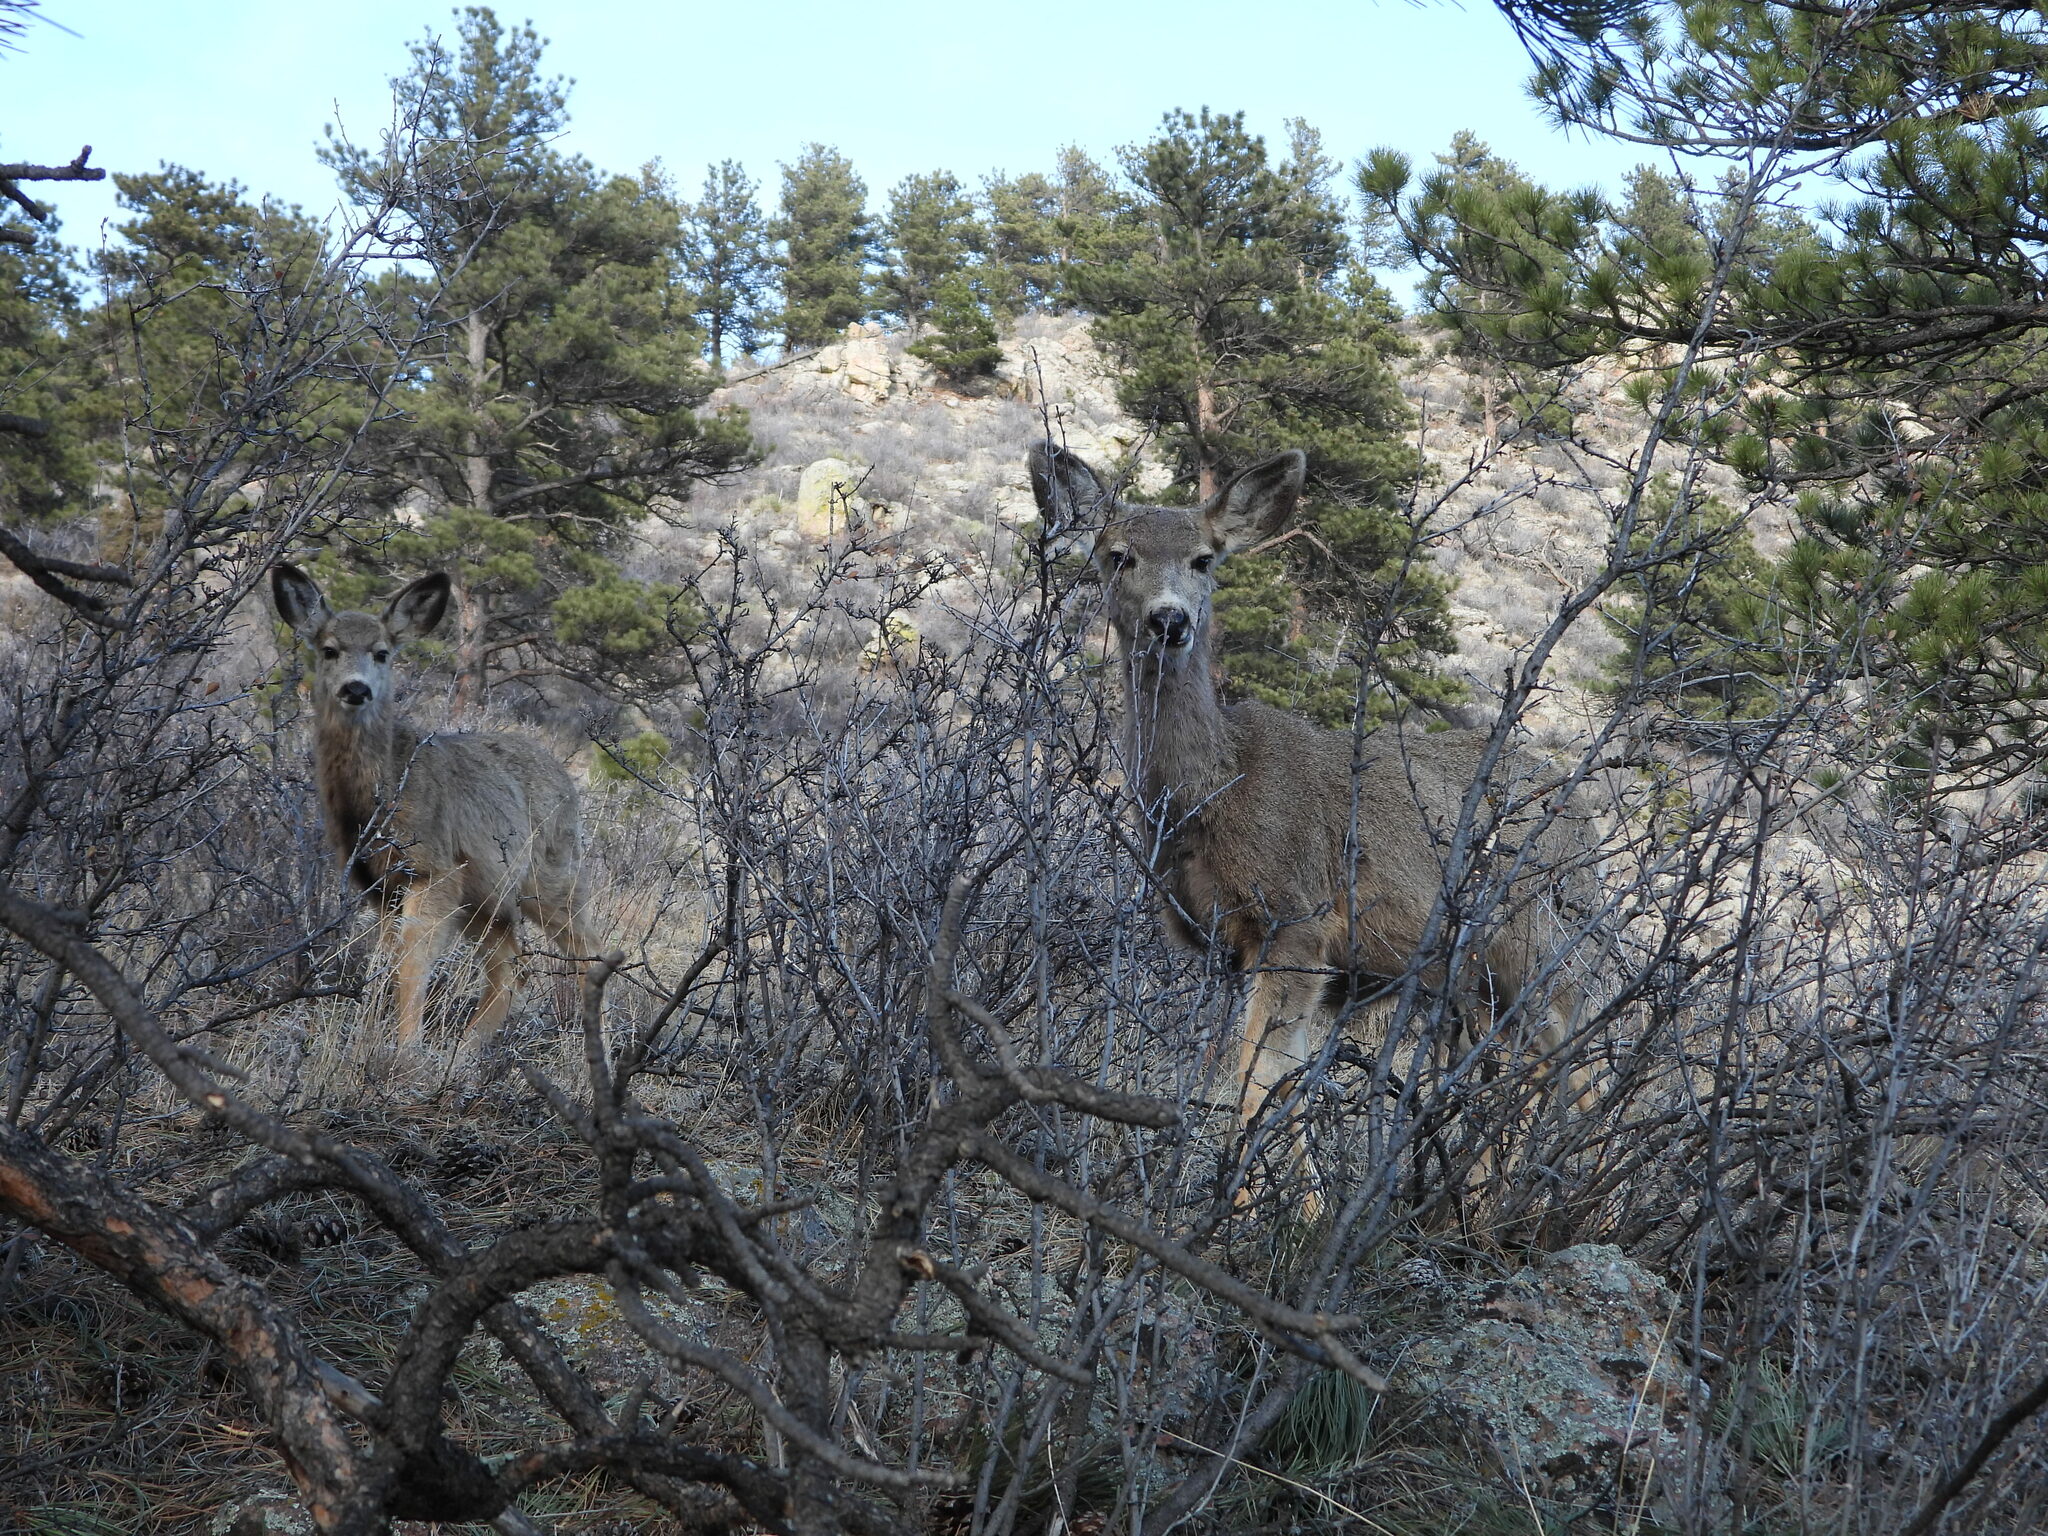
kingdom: Animalia
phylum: Chordata
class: Mammalia
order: Artiodactyla
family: Cervidae
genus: Odocoileus
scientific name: Odocoileus hemionus
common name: Mule deer
